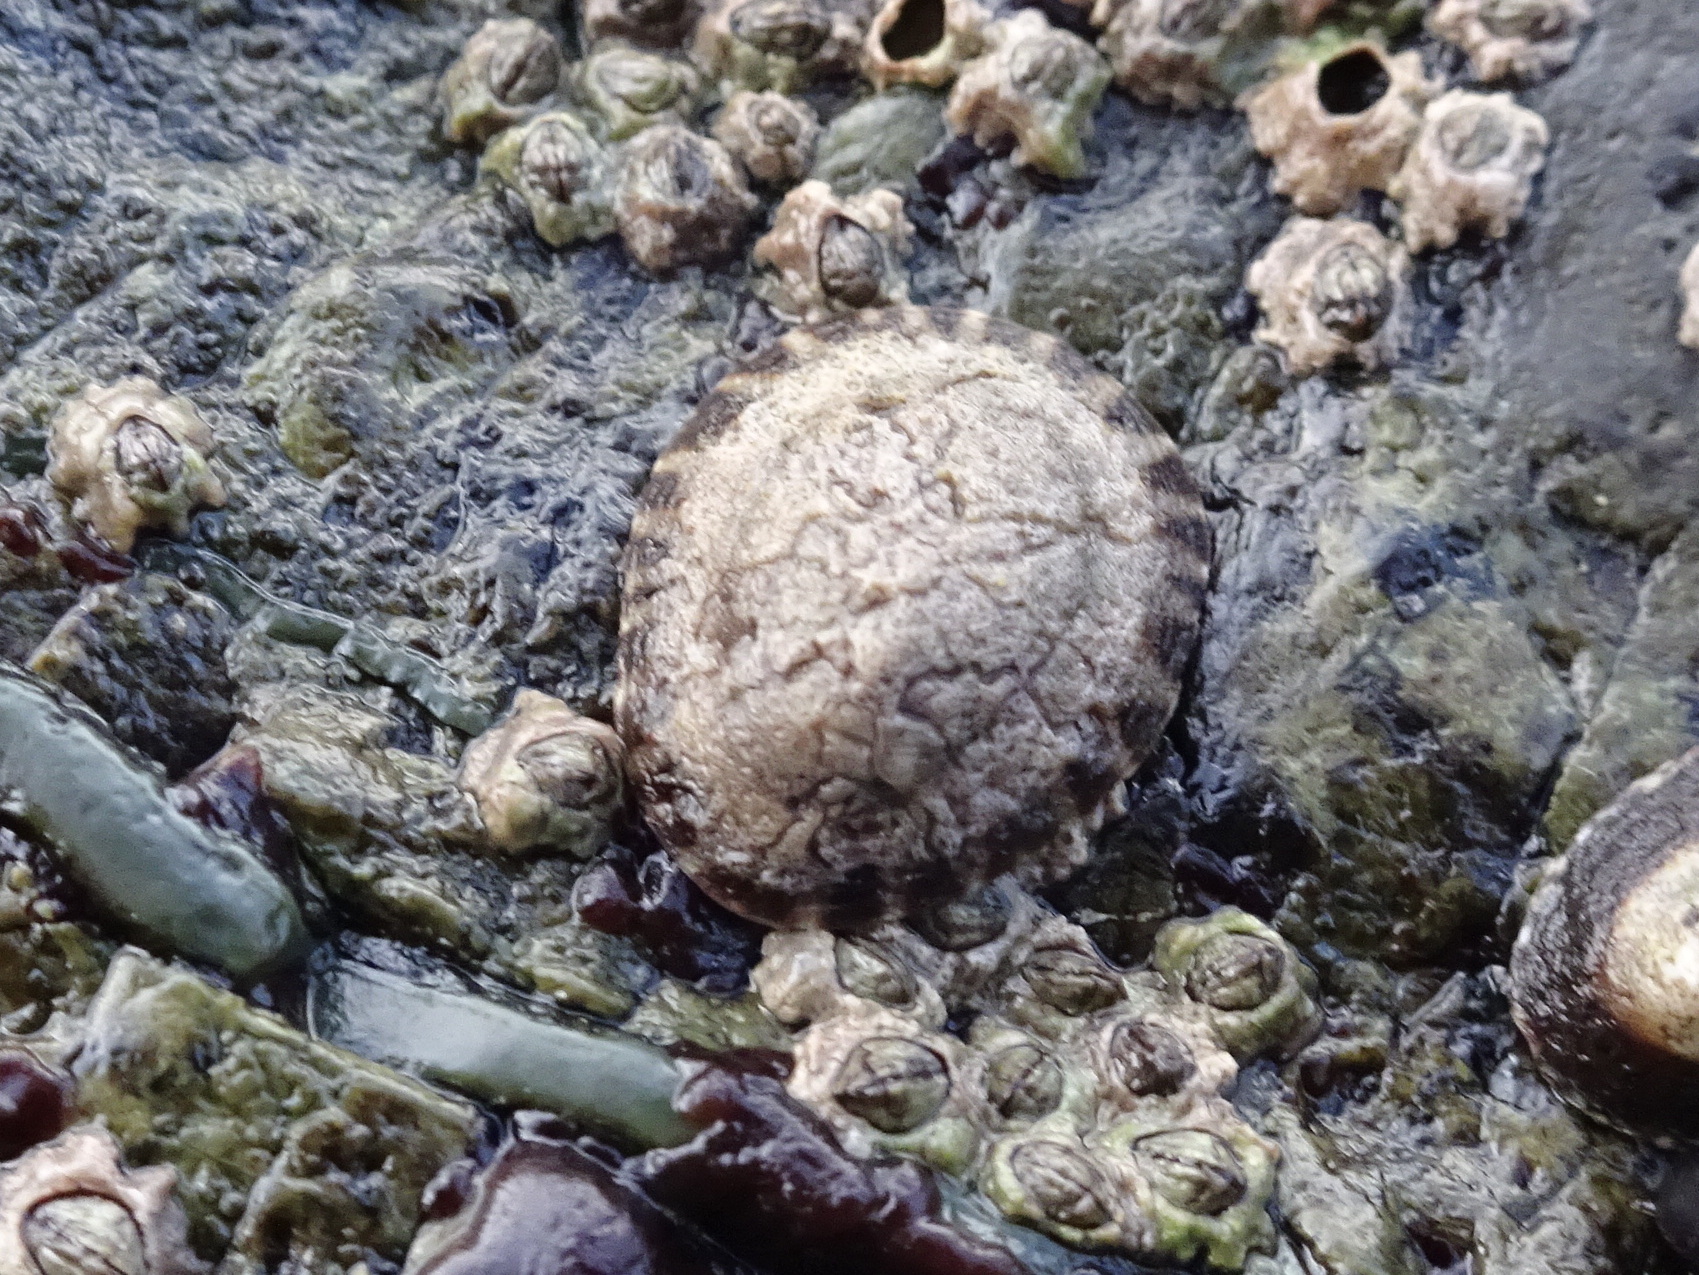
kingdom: Animalia
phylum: Mollusca
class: Gastropoda
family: Lottiidae
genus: Lottia
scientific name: Lottia gigantea
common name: Owl limpet
